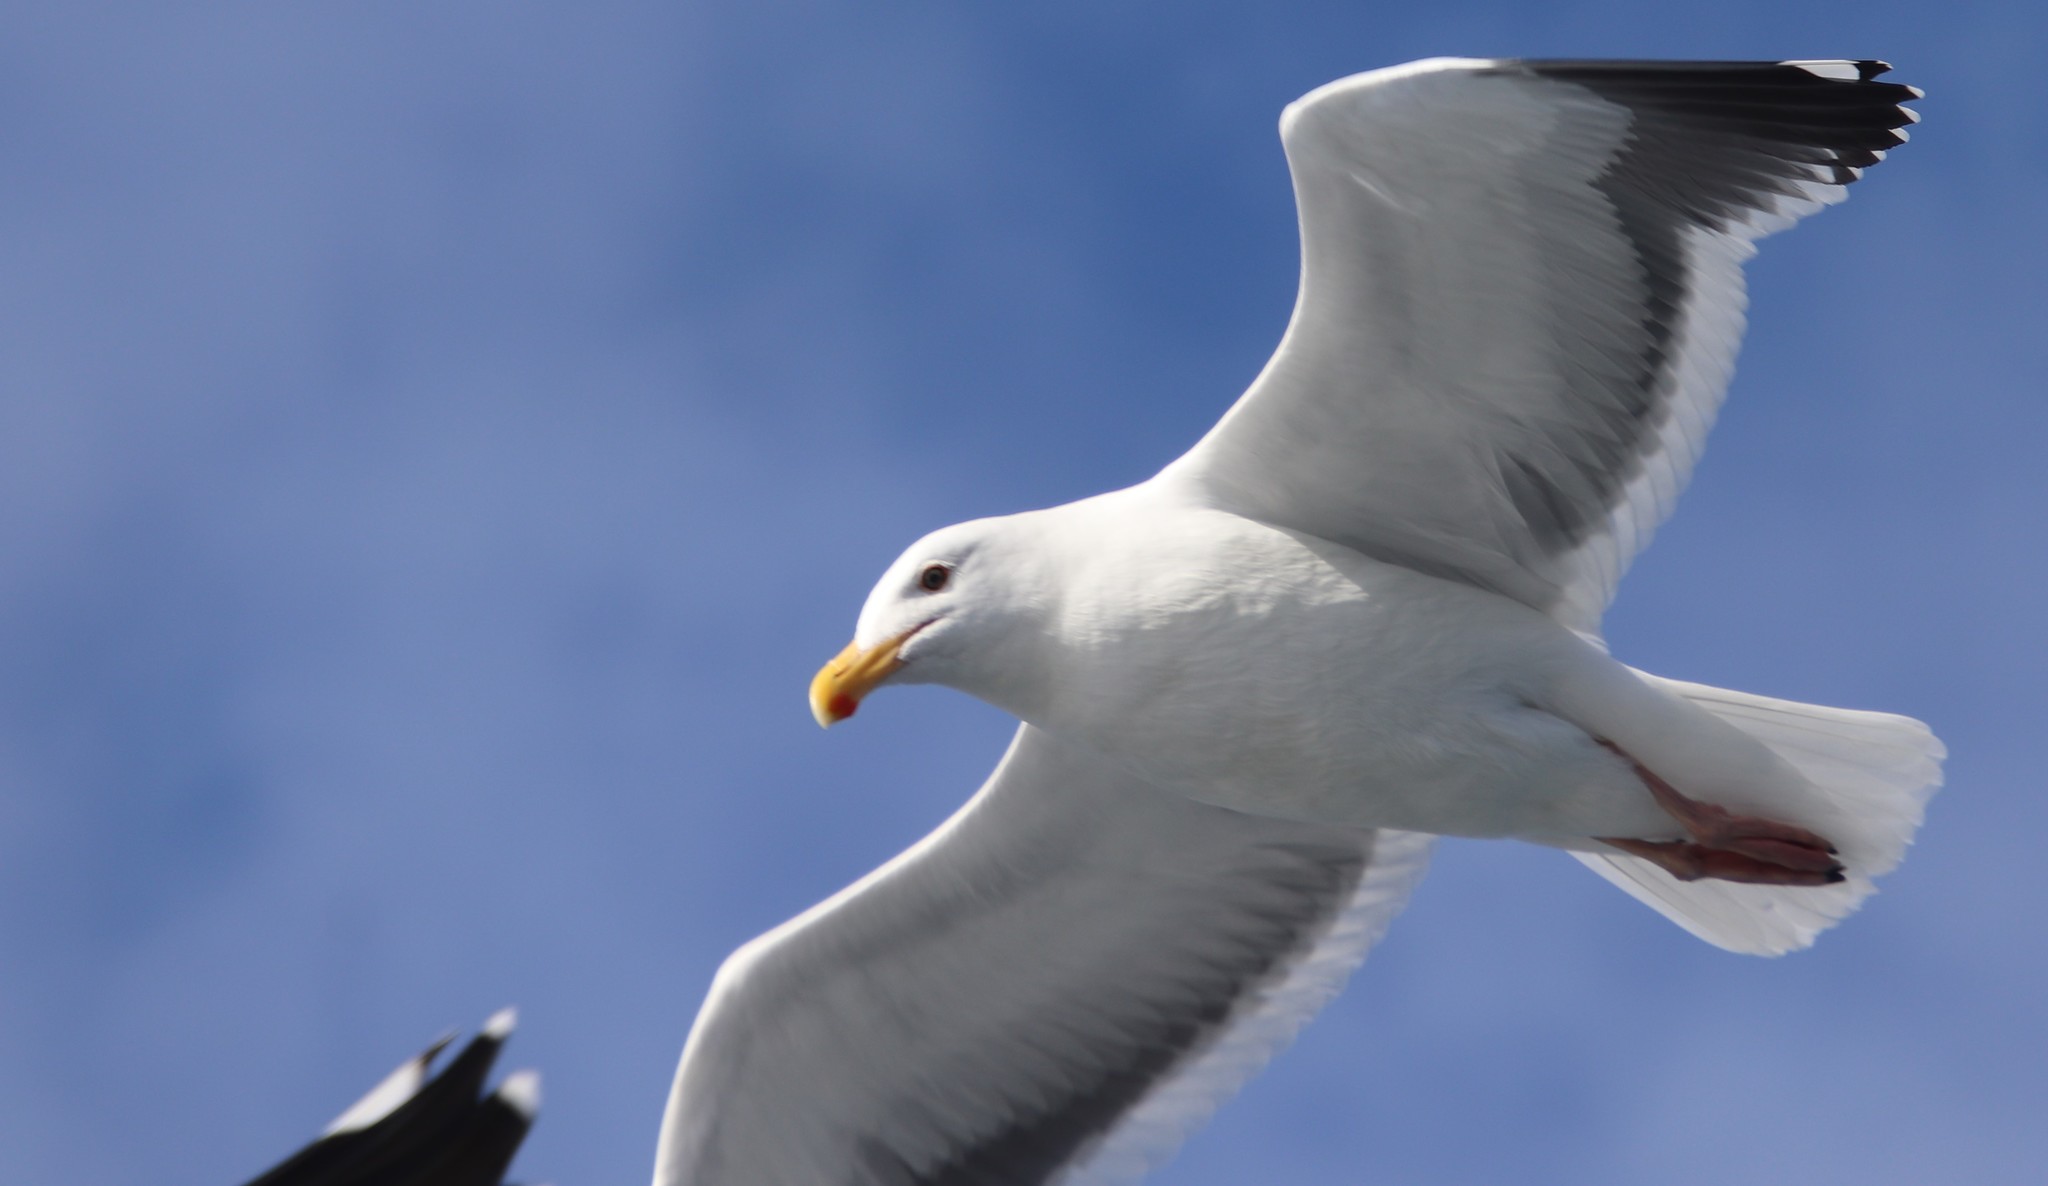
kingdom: Animalia
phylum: Chordata
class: Aves
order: Charadriiformes
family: Laridae
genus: Larus
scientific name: Larus occidentalis
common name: Western gull
